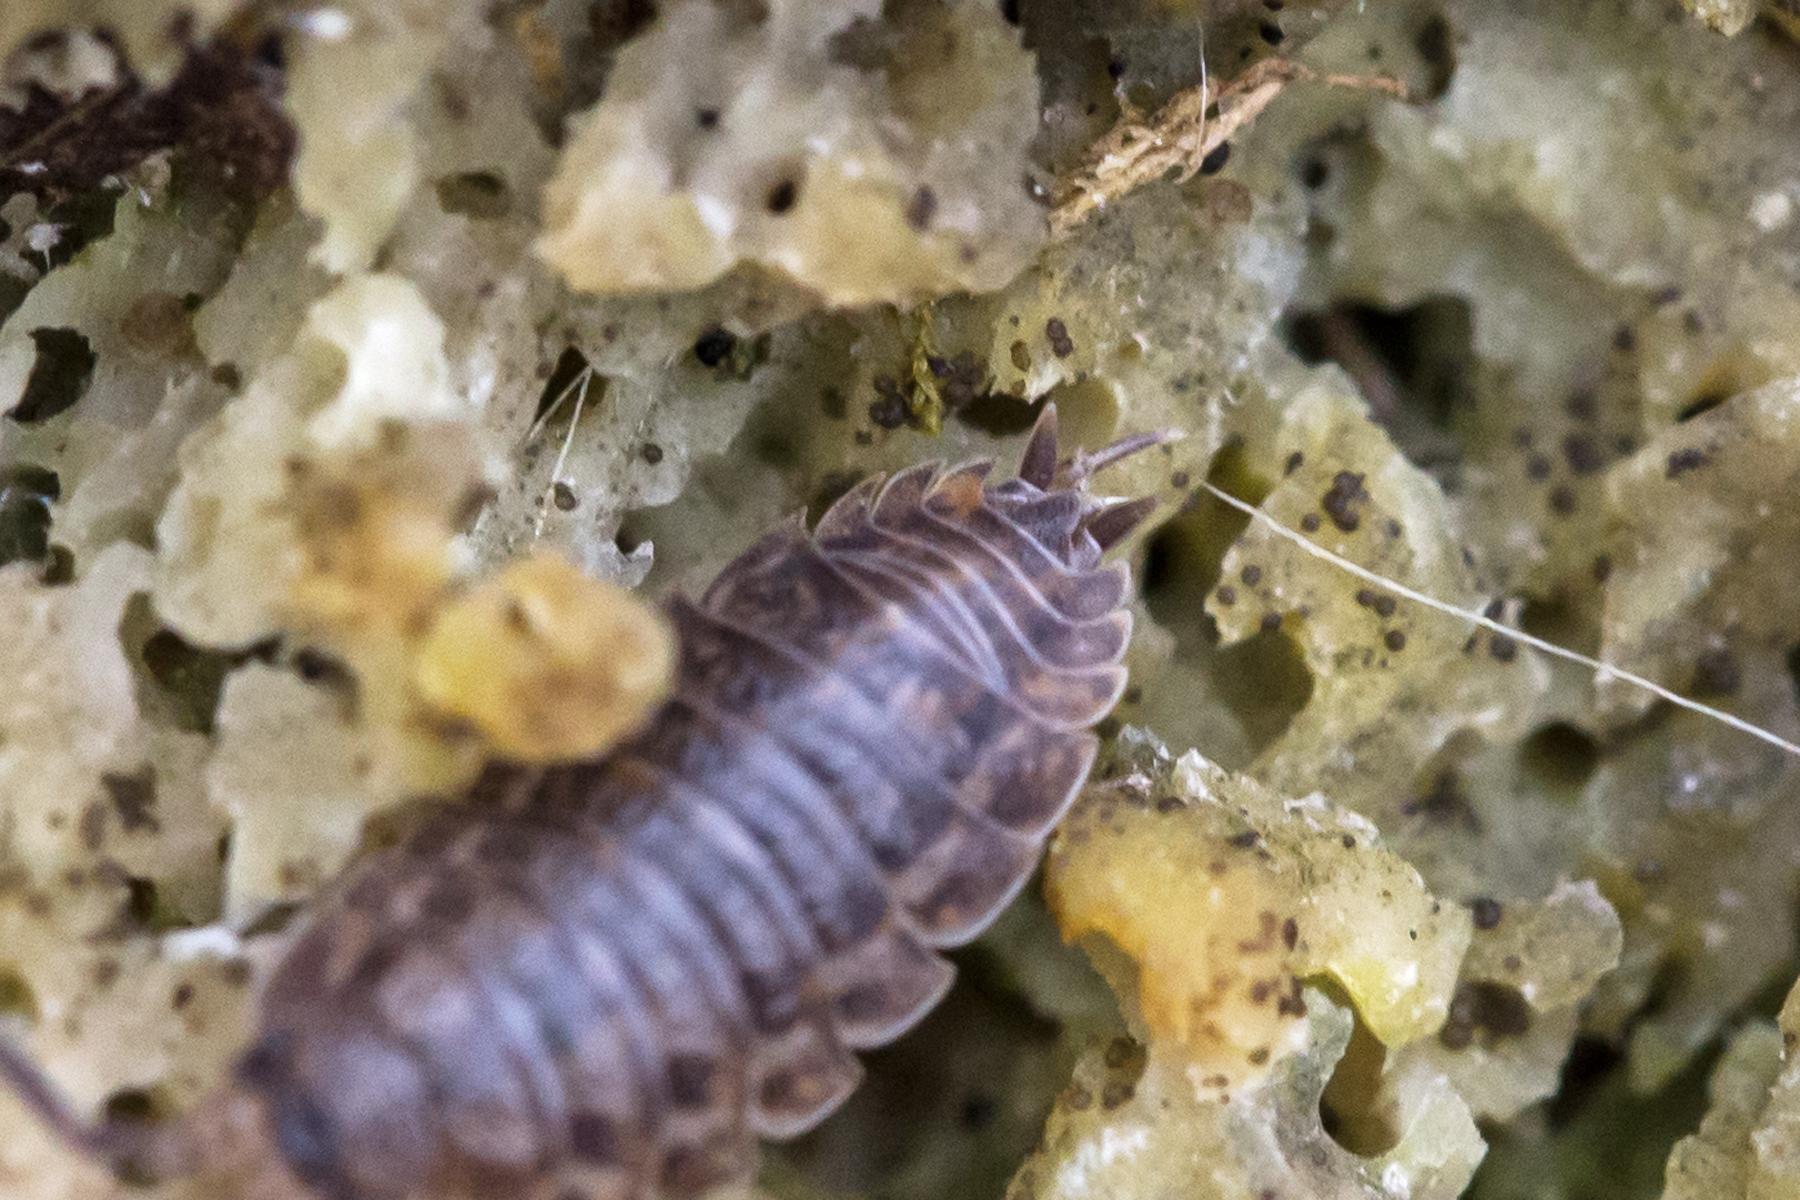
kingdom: Animalia
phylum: Arthropoda
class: Malacostraca
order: Isopoda
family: Trachelipodidae
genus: Trachelipus
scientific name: Trachelipus rathkii
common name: Isopod
